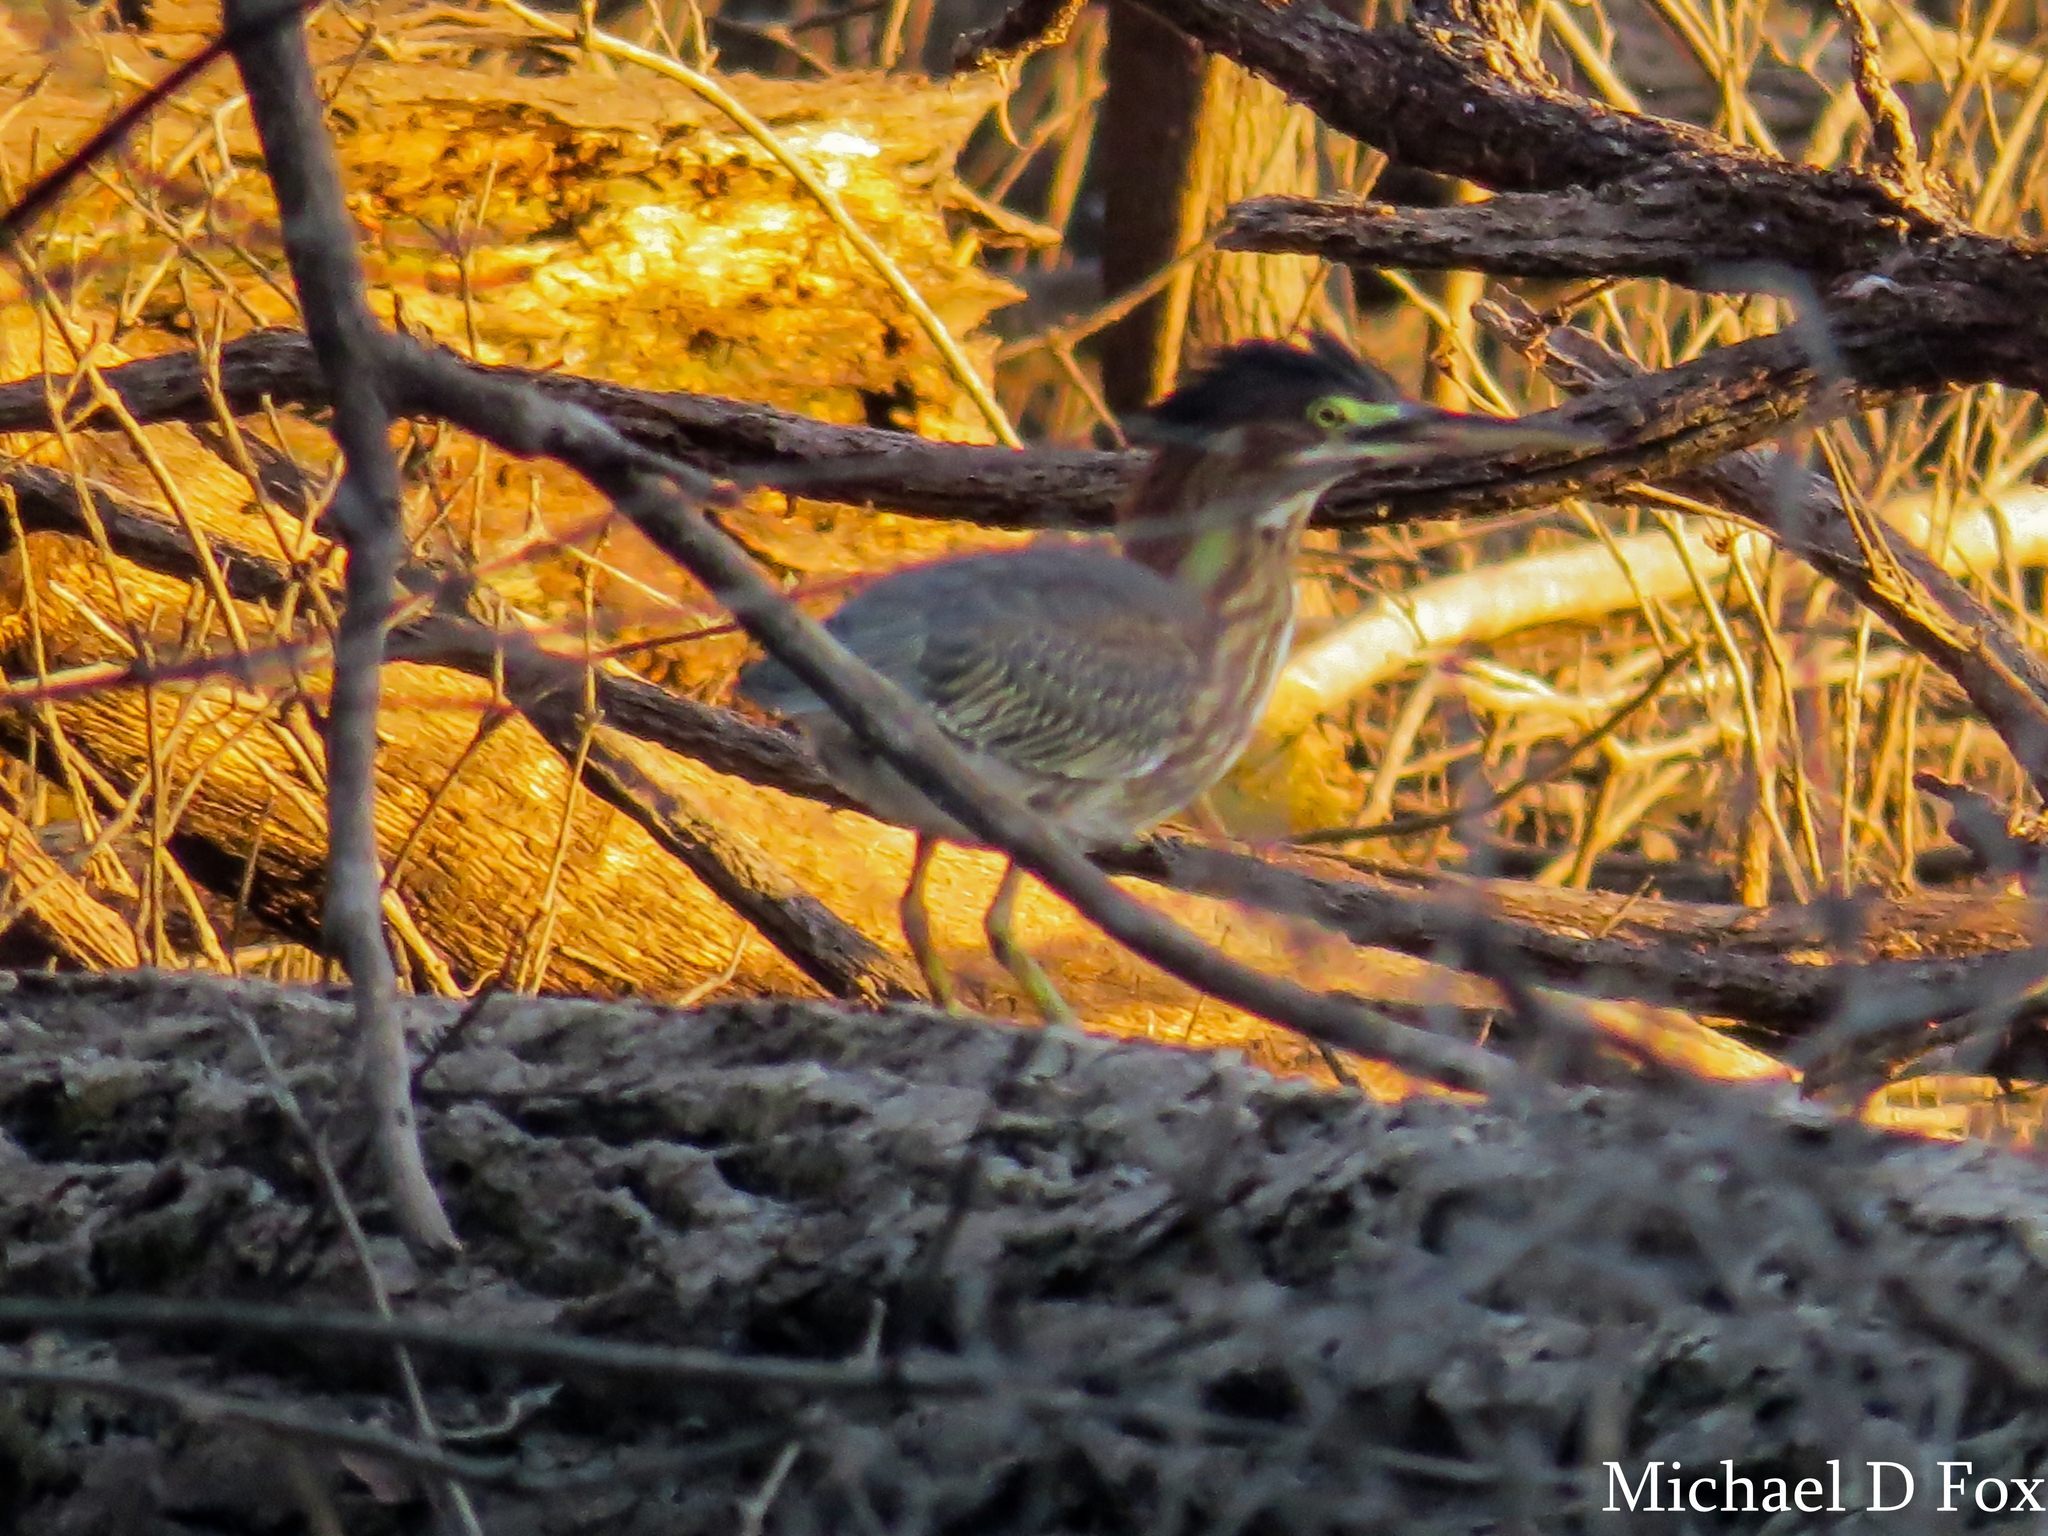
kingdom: Animalia
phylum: Chordata
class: Aves
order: Pelecaniformes
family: Ardeidae
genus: Butorides
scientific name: Butorides virescens
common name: Green heron
